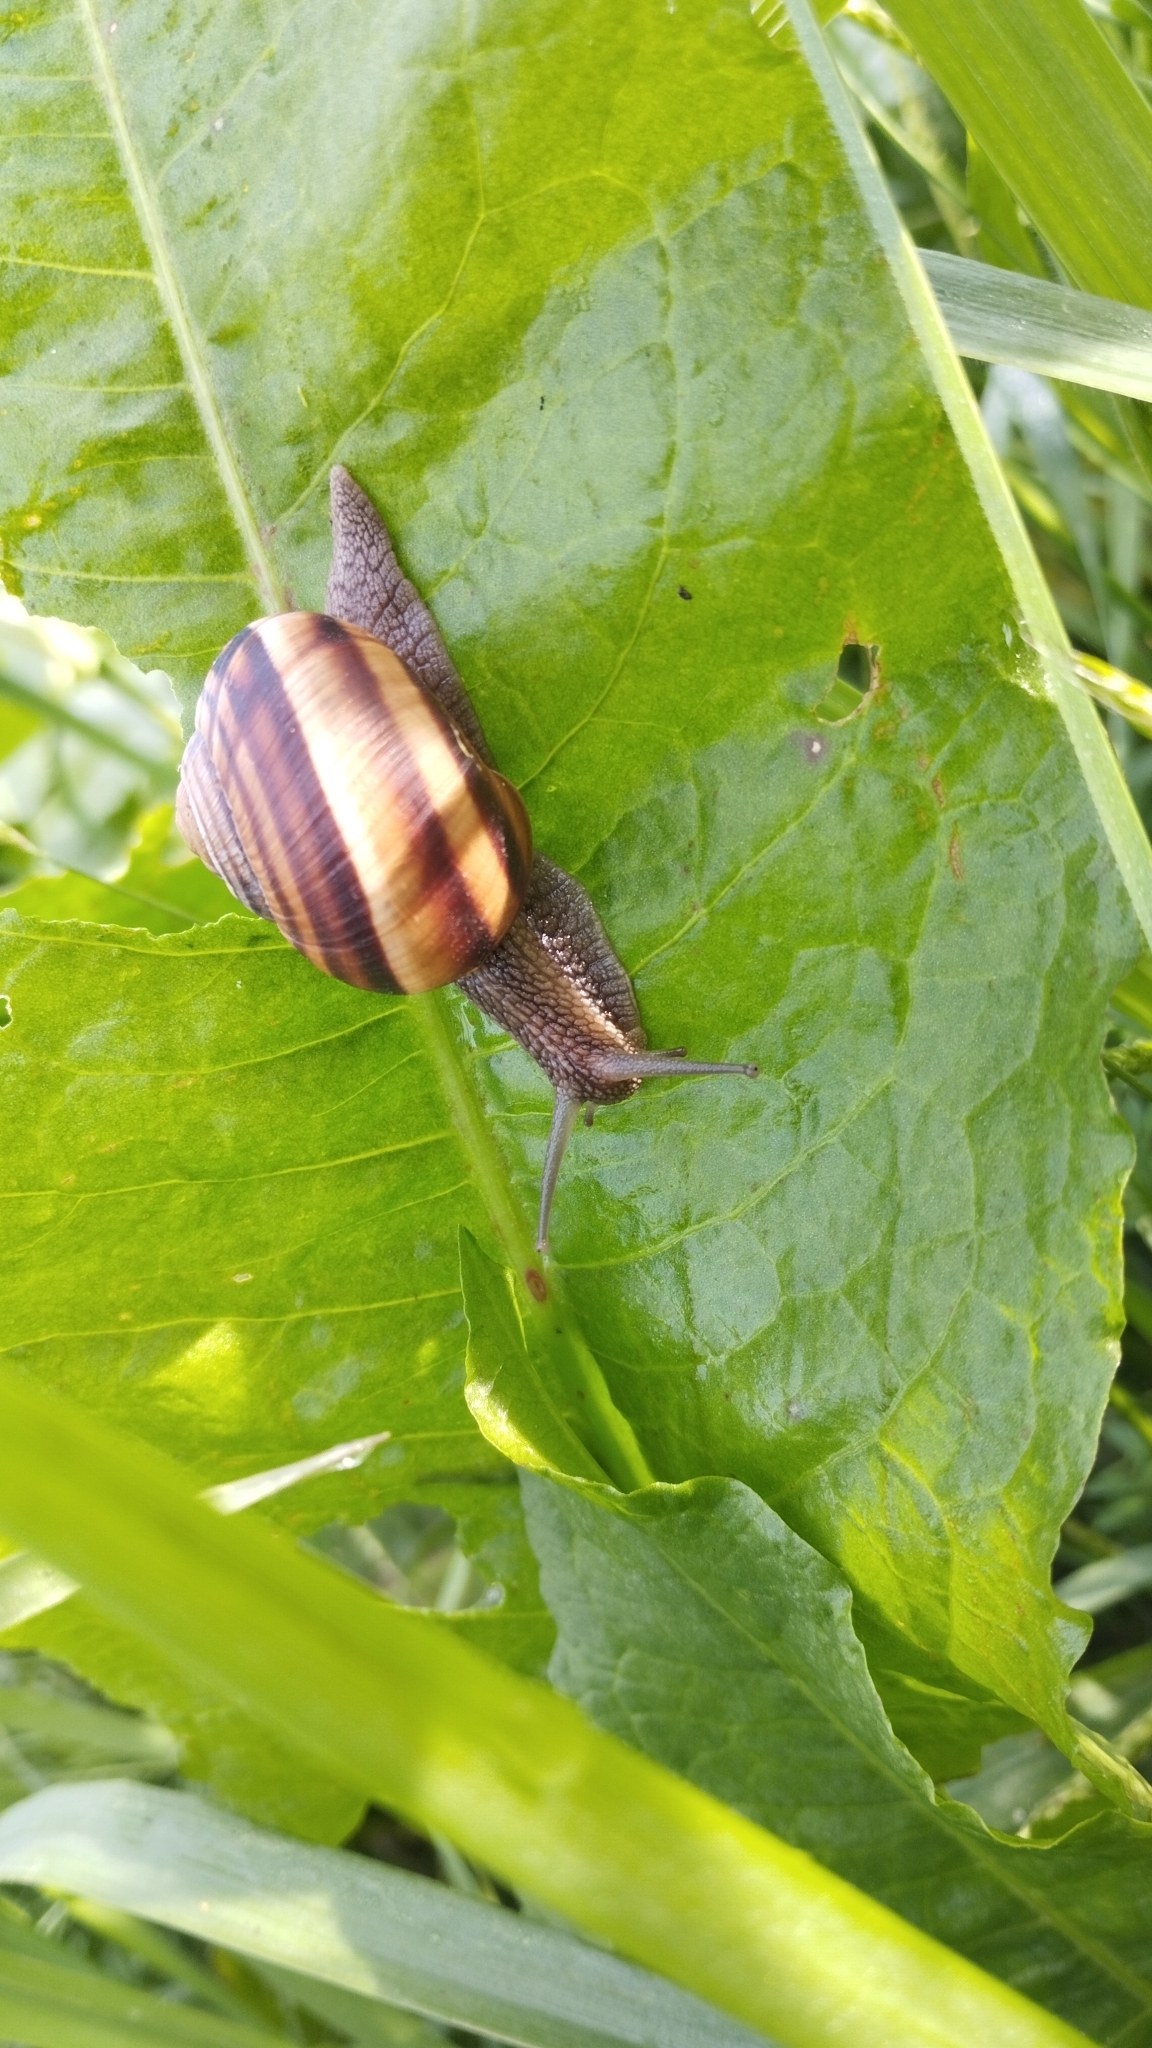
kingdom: Animalia
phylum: Mollusca
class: Gastropoda
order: Stylommatophora
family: Helicidae
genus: Helix
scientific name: Helix lucorum
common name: Turkish snail
